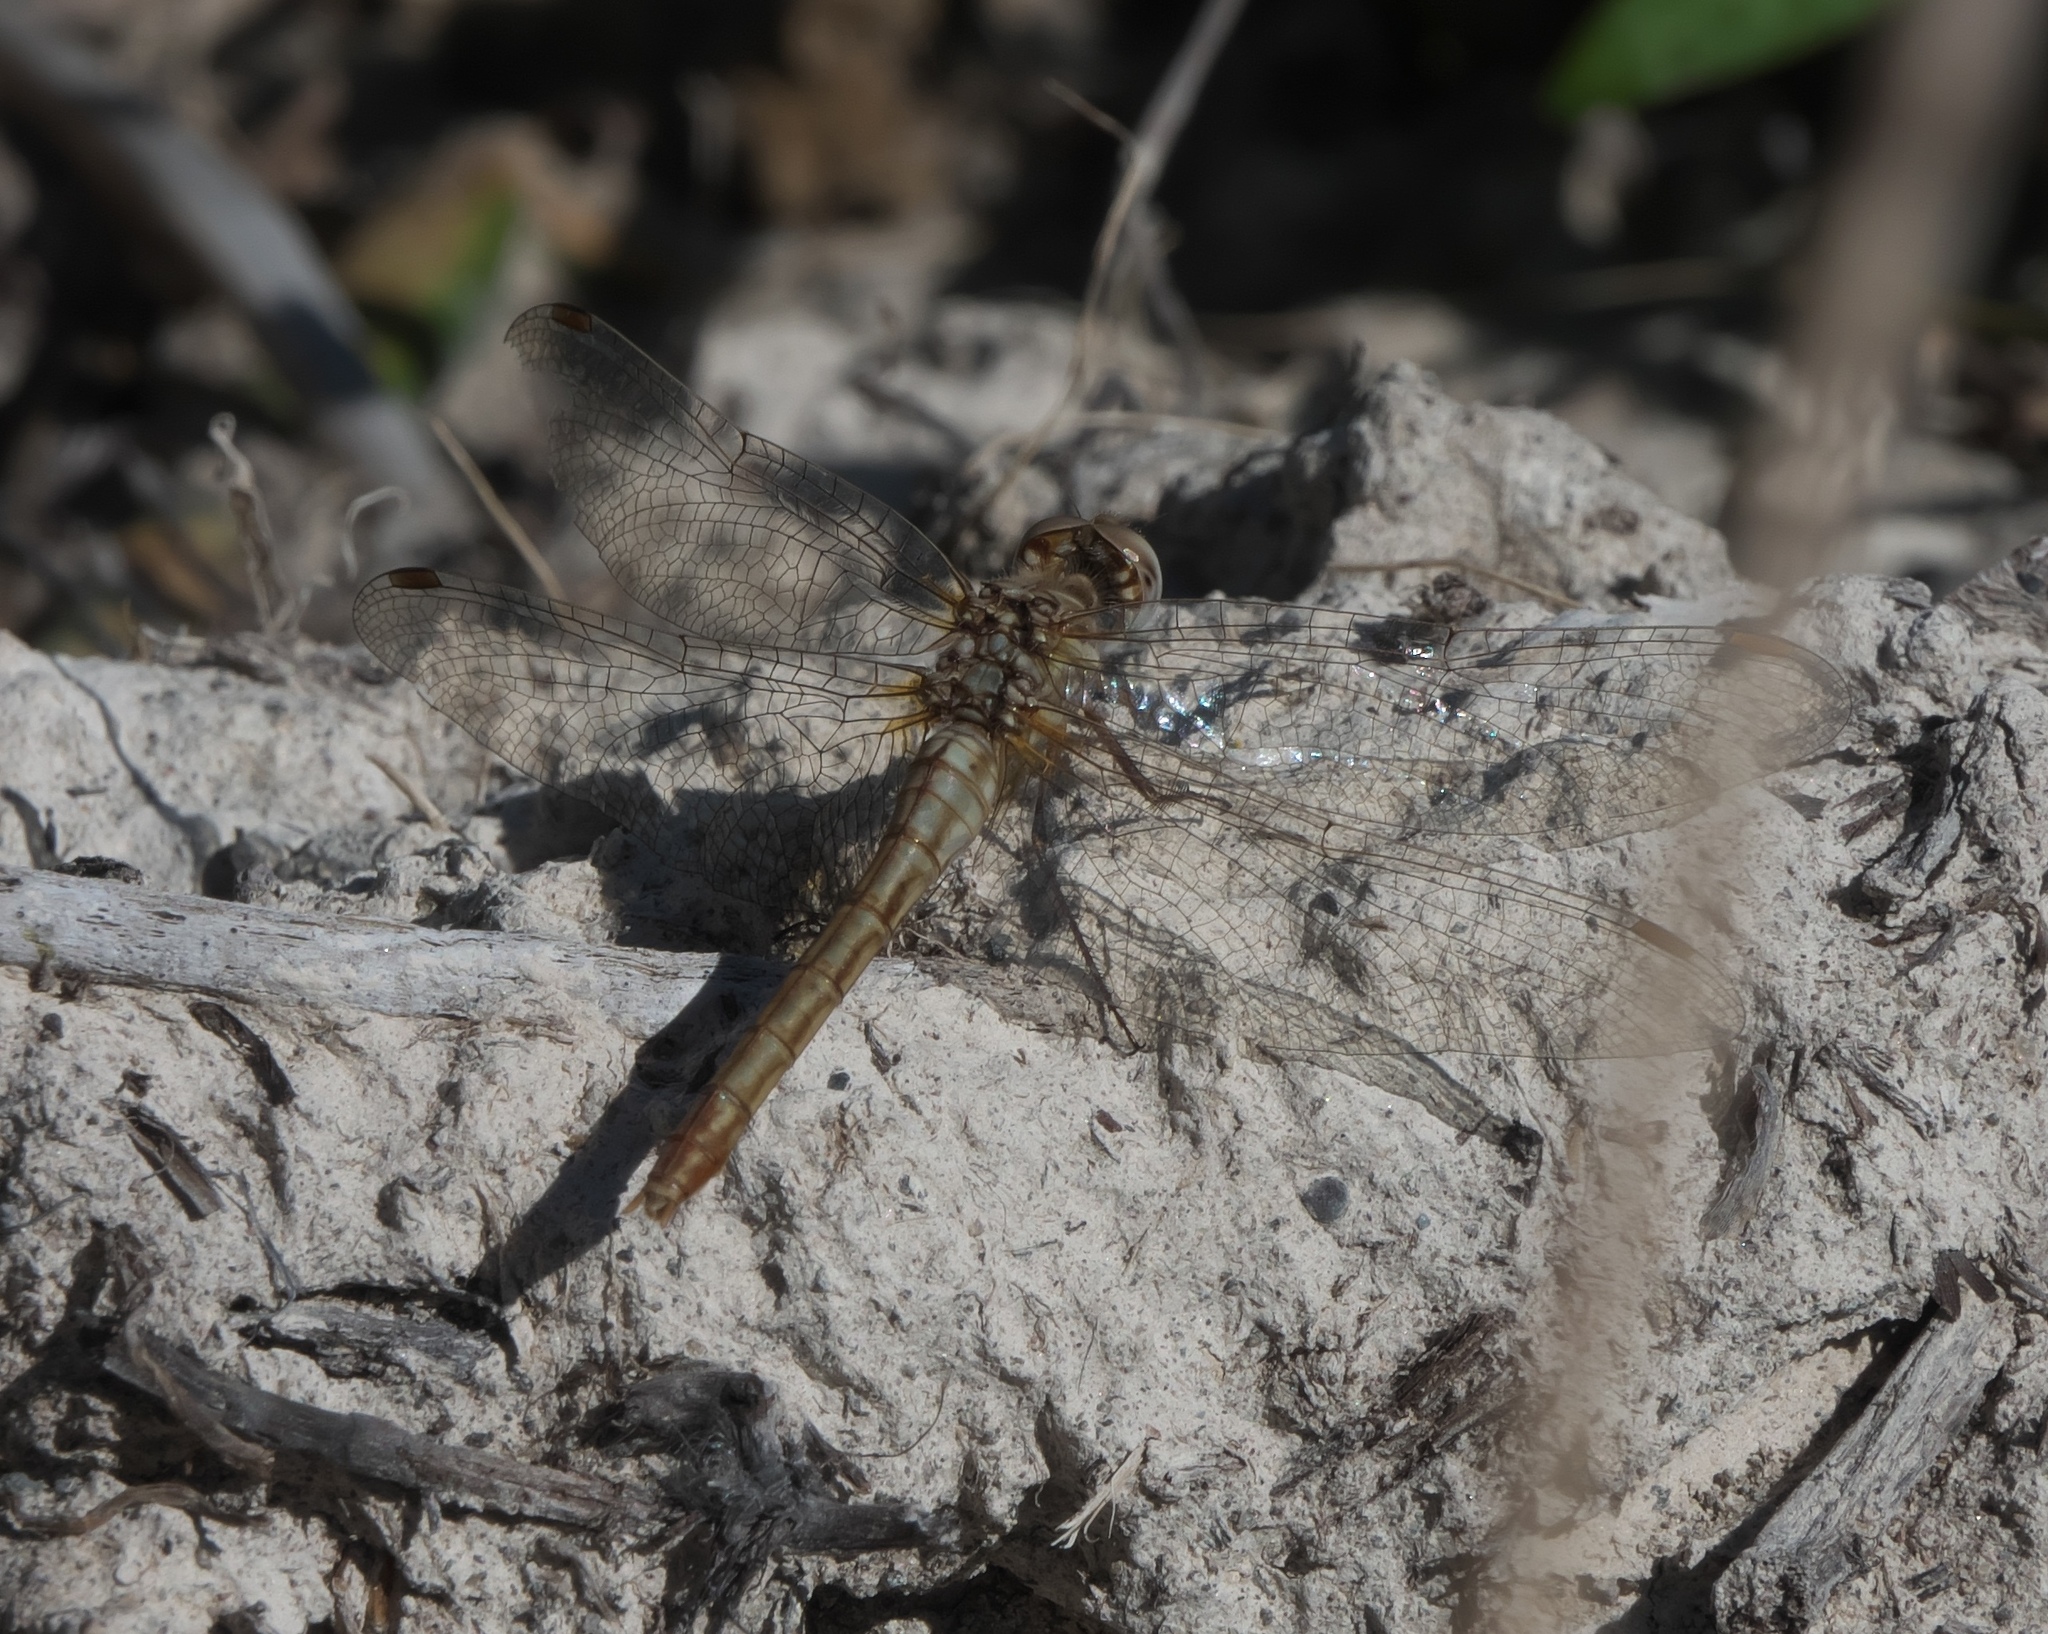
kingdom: Animalia
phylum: Arthropoda
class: Insecta
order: Odonata
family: Libellulidae
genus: Sympetrum
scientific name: Sympetrum pallipes
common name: Striped meadowhawk
